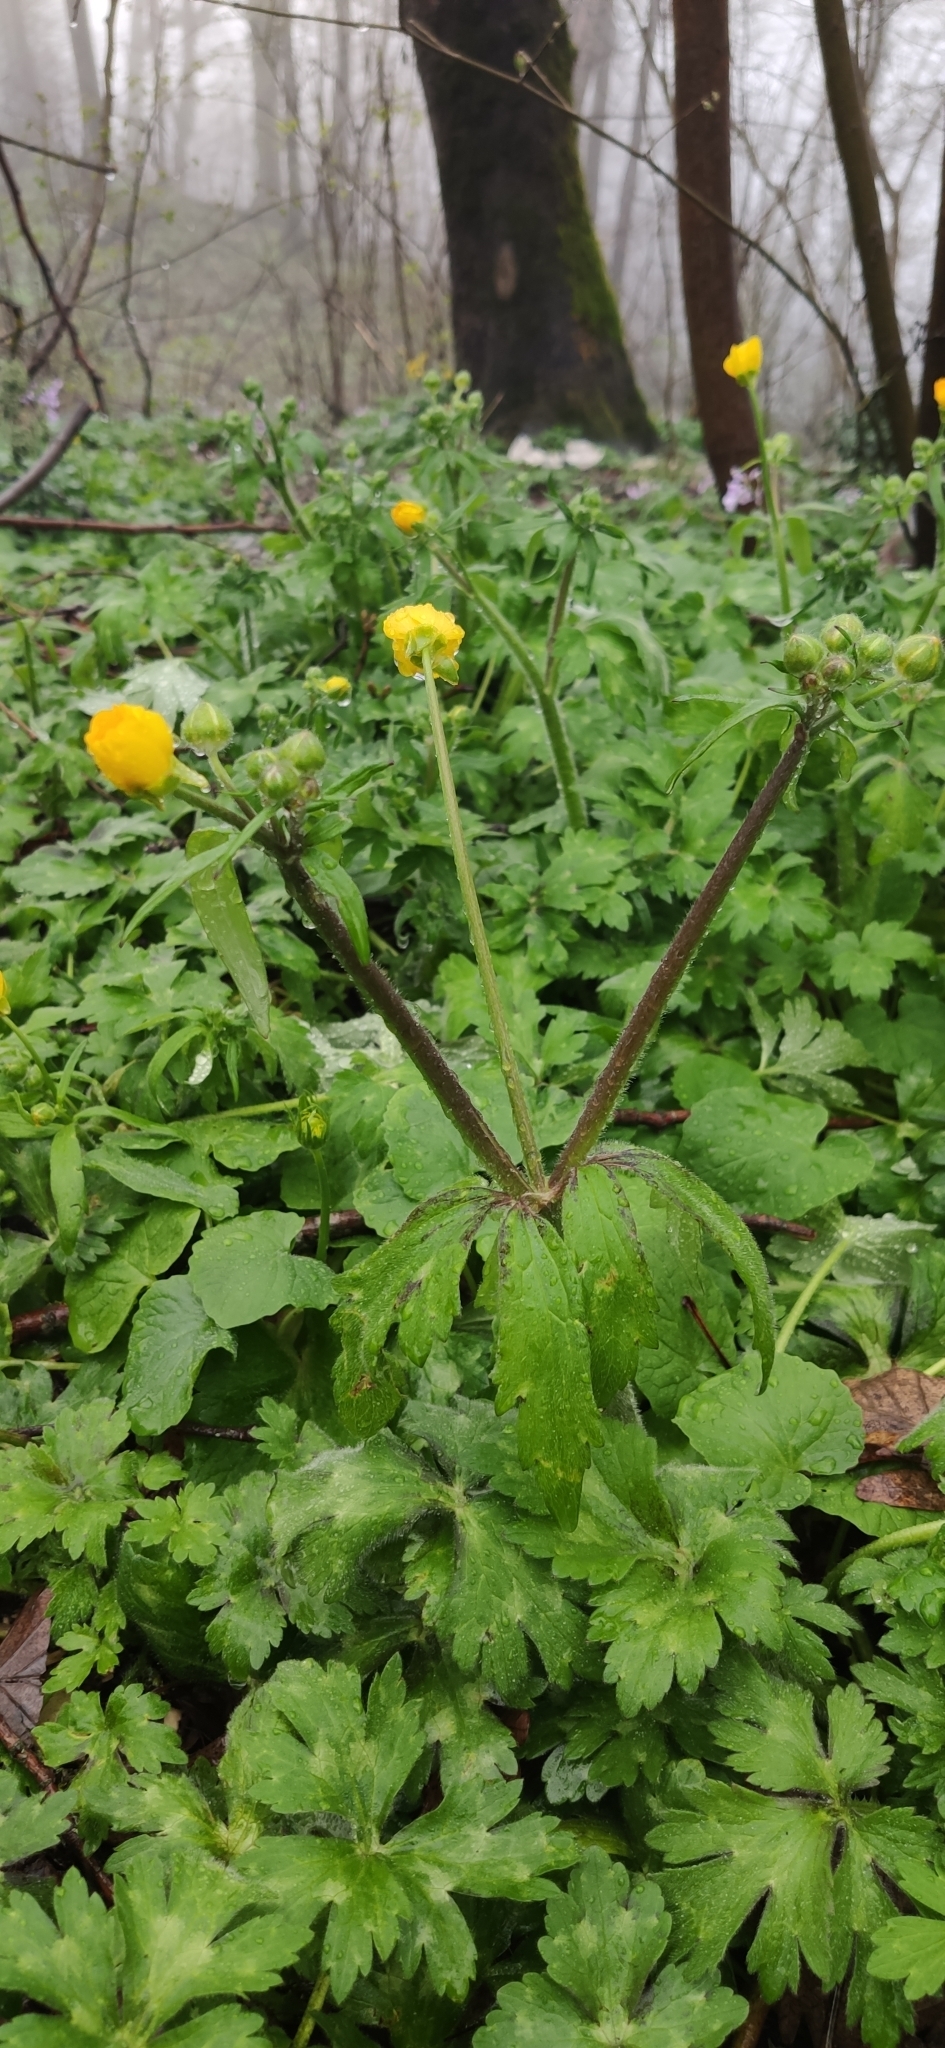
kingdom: Plantae
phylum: Tracheophyta
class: Magnoliopsida
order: Ranunculales
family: Ranunculaceae
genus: Ranunculus
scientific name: Ranunculus constantinopolitanus
